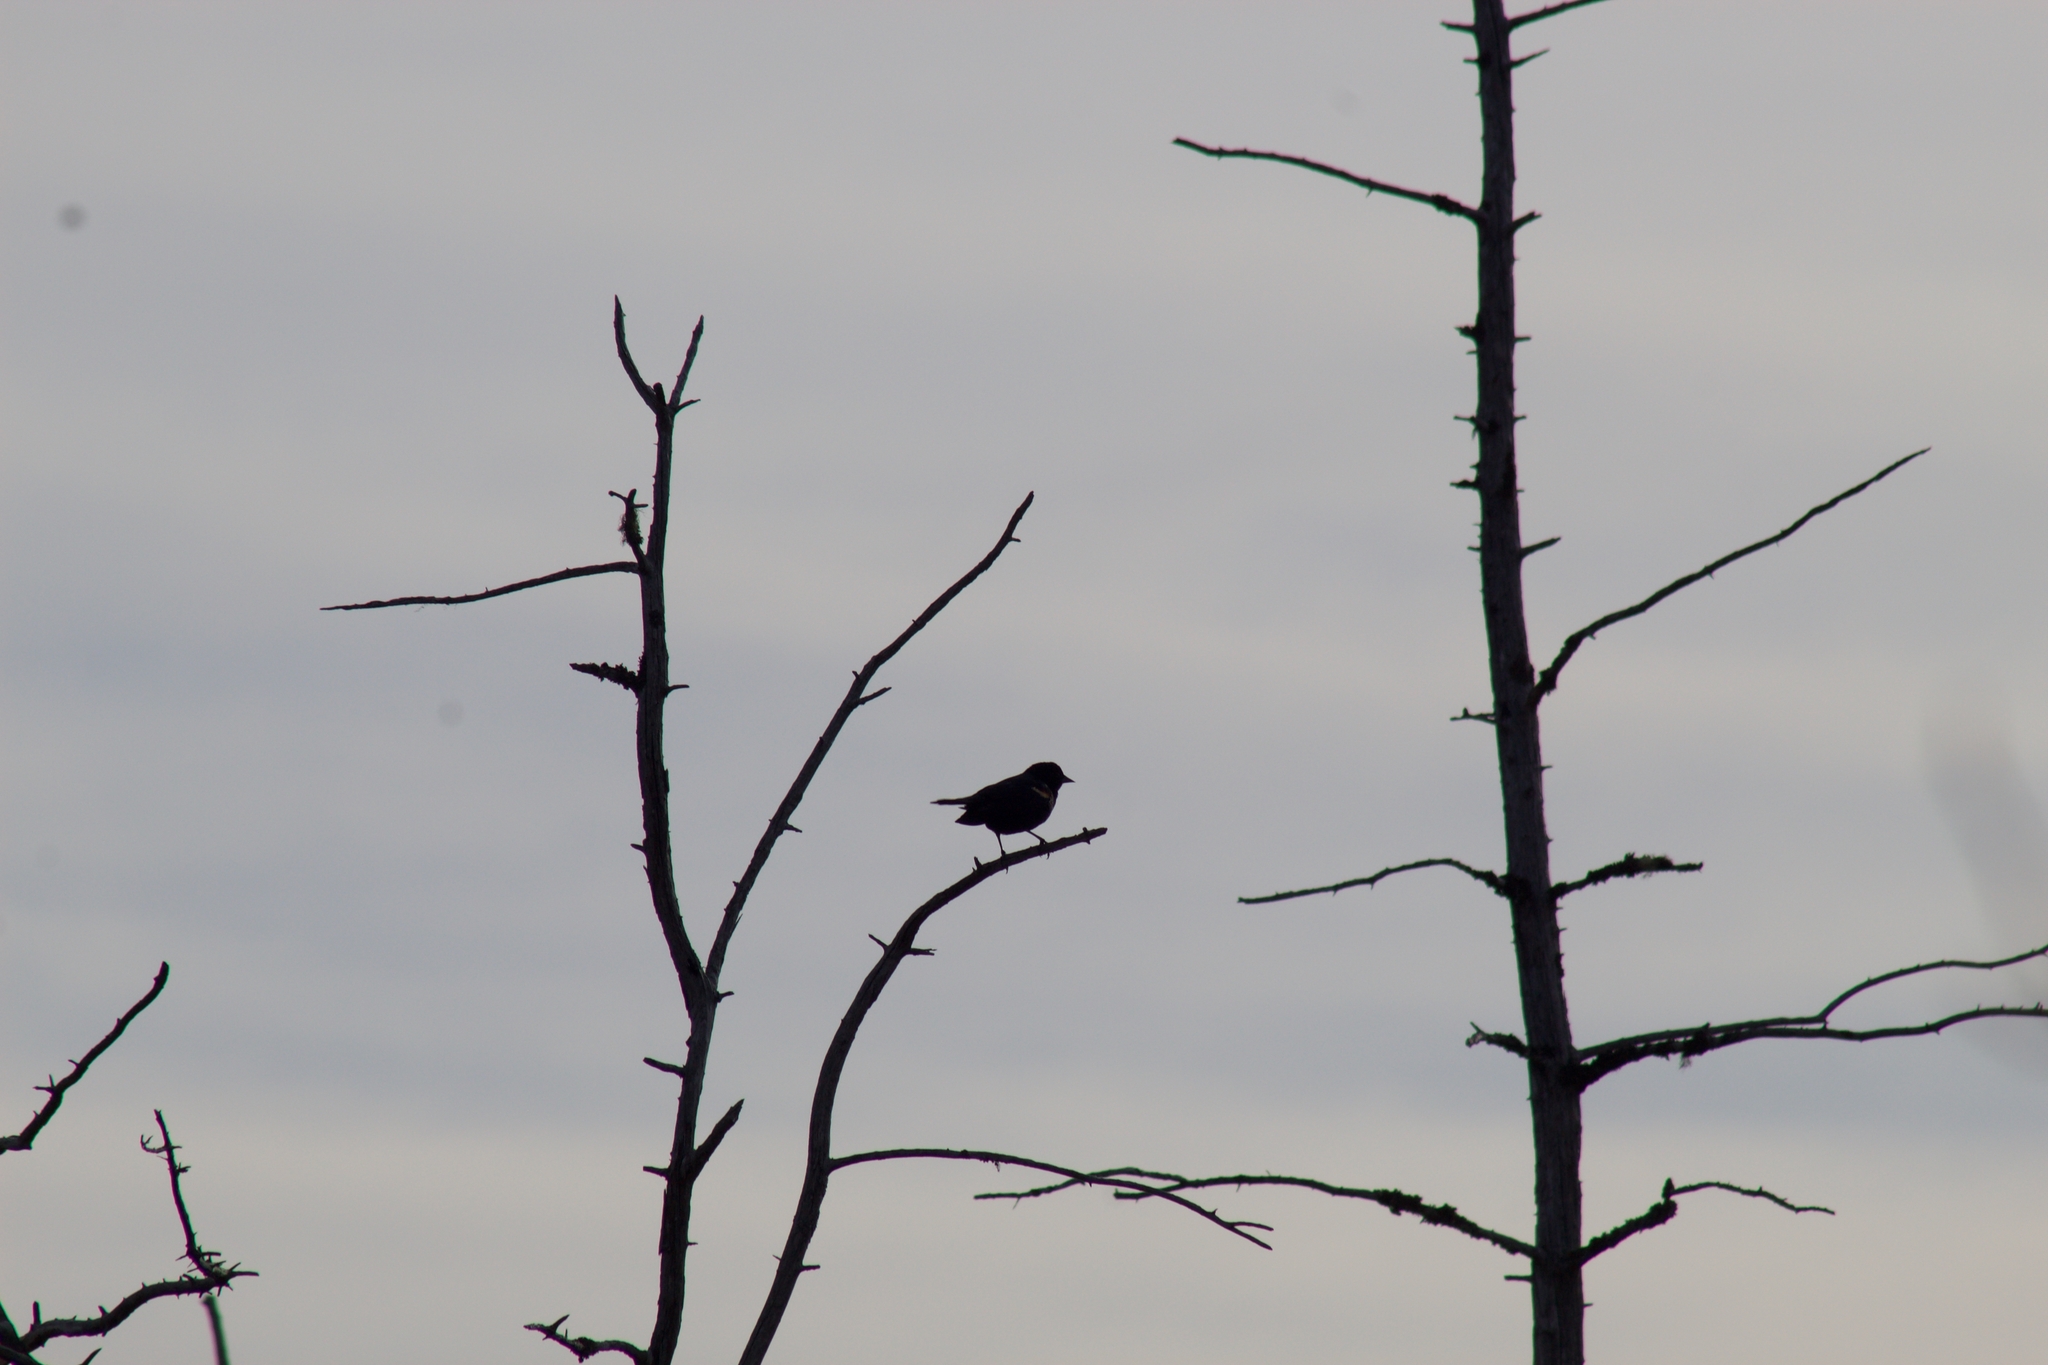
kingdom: Animalia
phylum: Chordata
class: Aves
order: Passeriformes
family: Icteridae
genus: Agelaius
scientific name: Agelaius phoeniceus
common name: Red-winged blackbird
